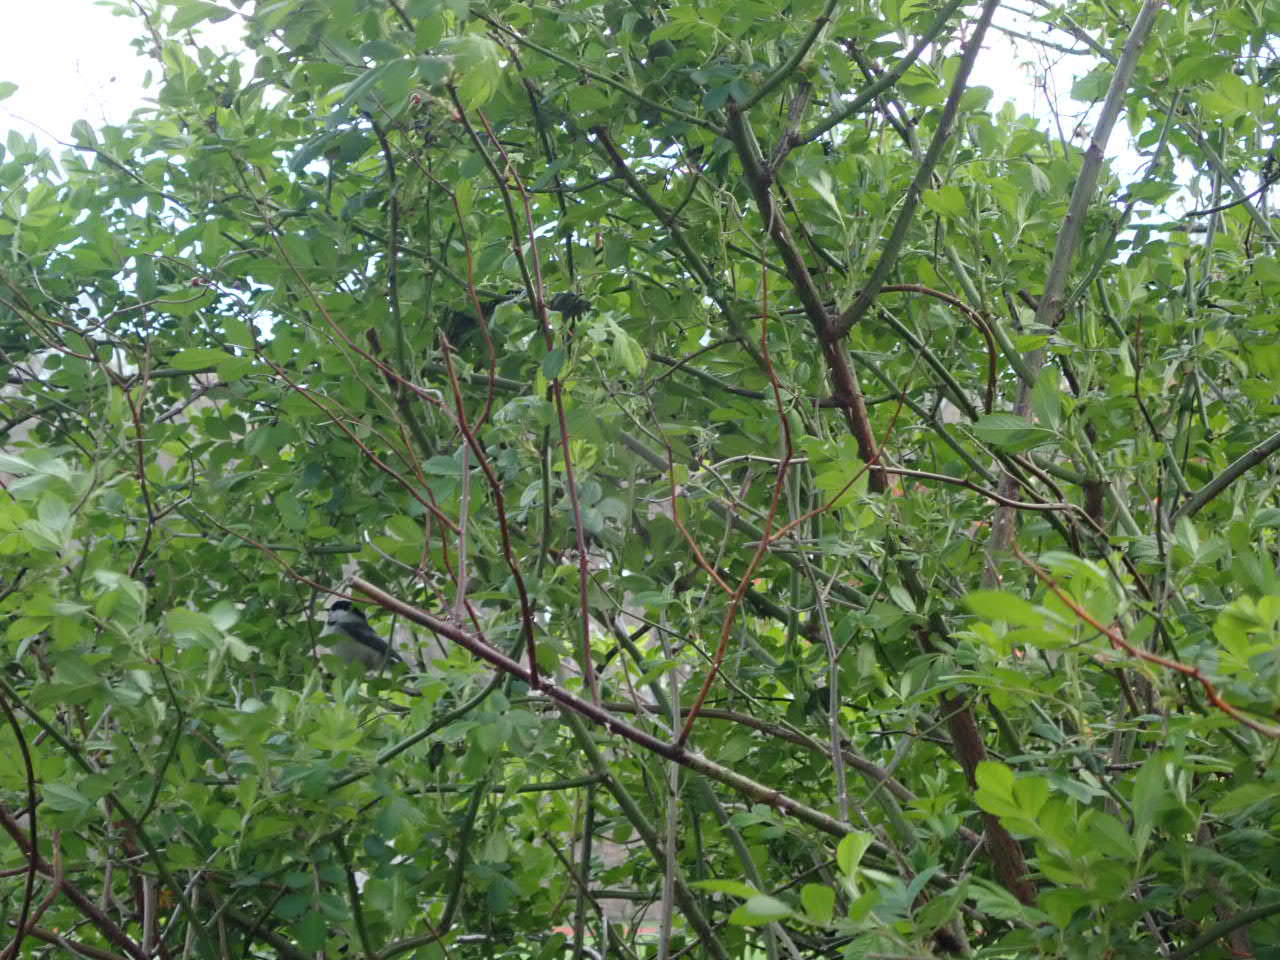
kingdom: Animalia
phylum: Chordata
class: Aves
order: Passeriformes
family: Paridae
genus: Poecile
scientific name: Poecile atricapillus
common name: Black-capped chickadee
